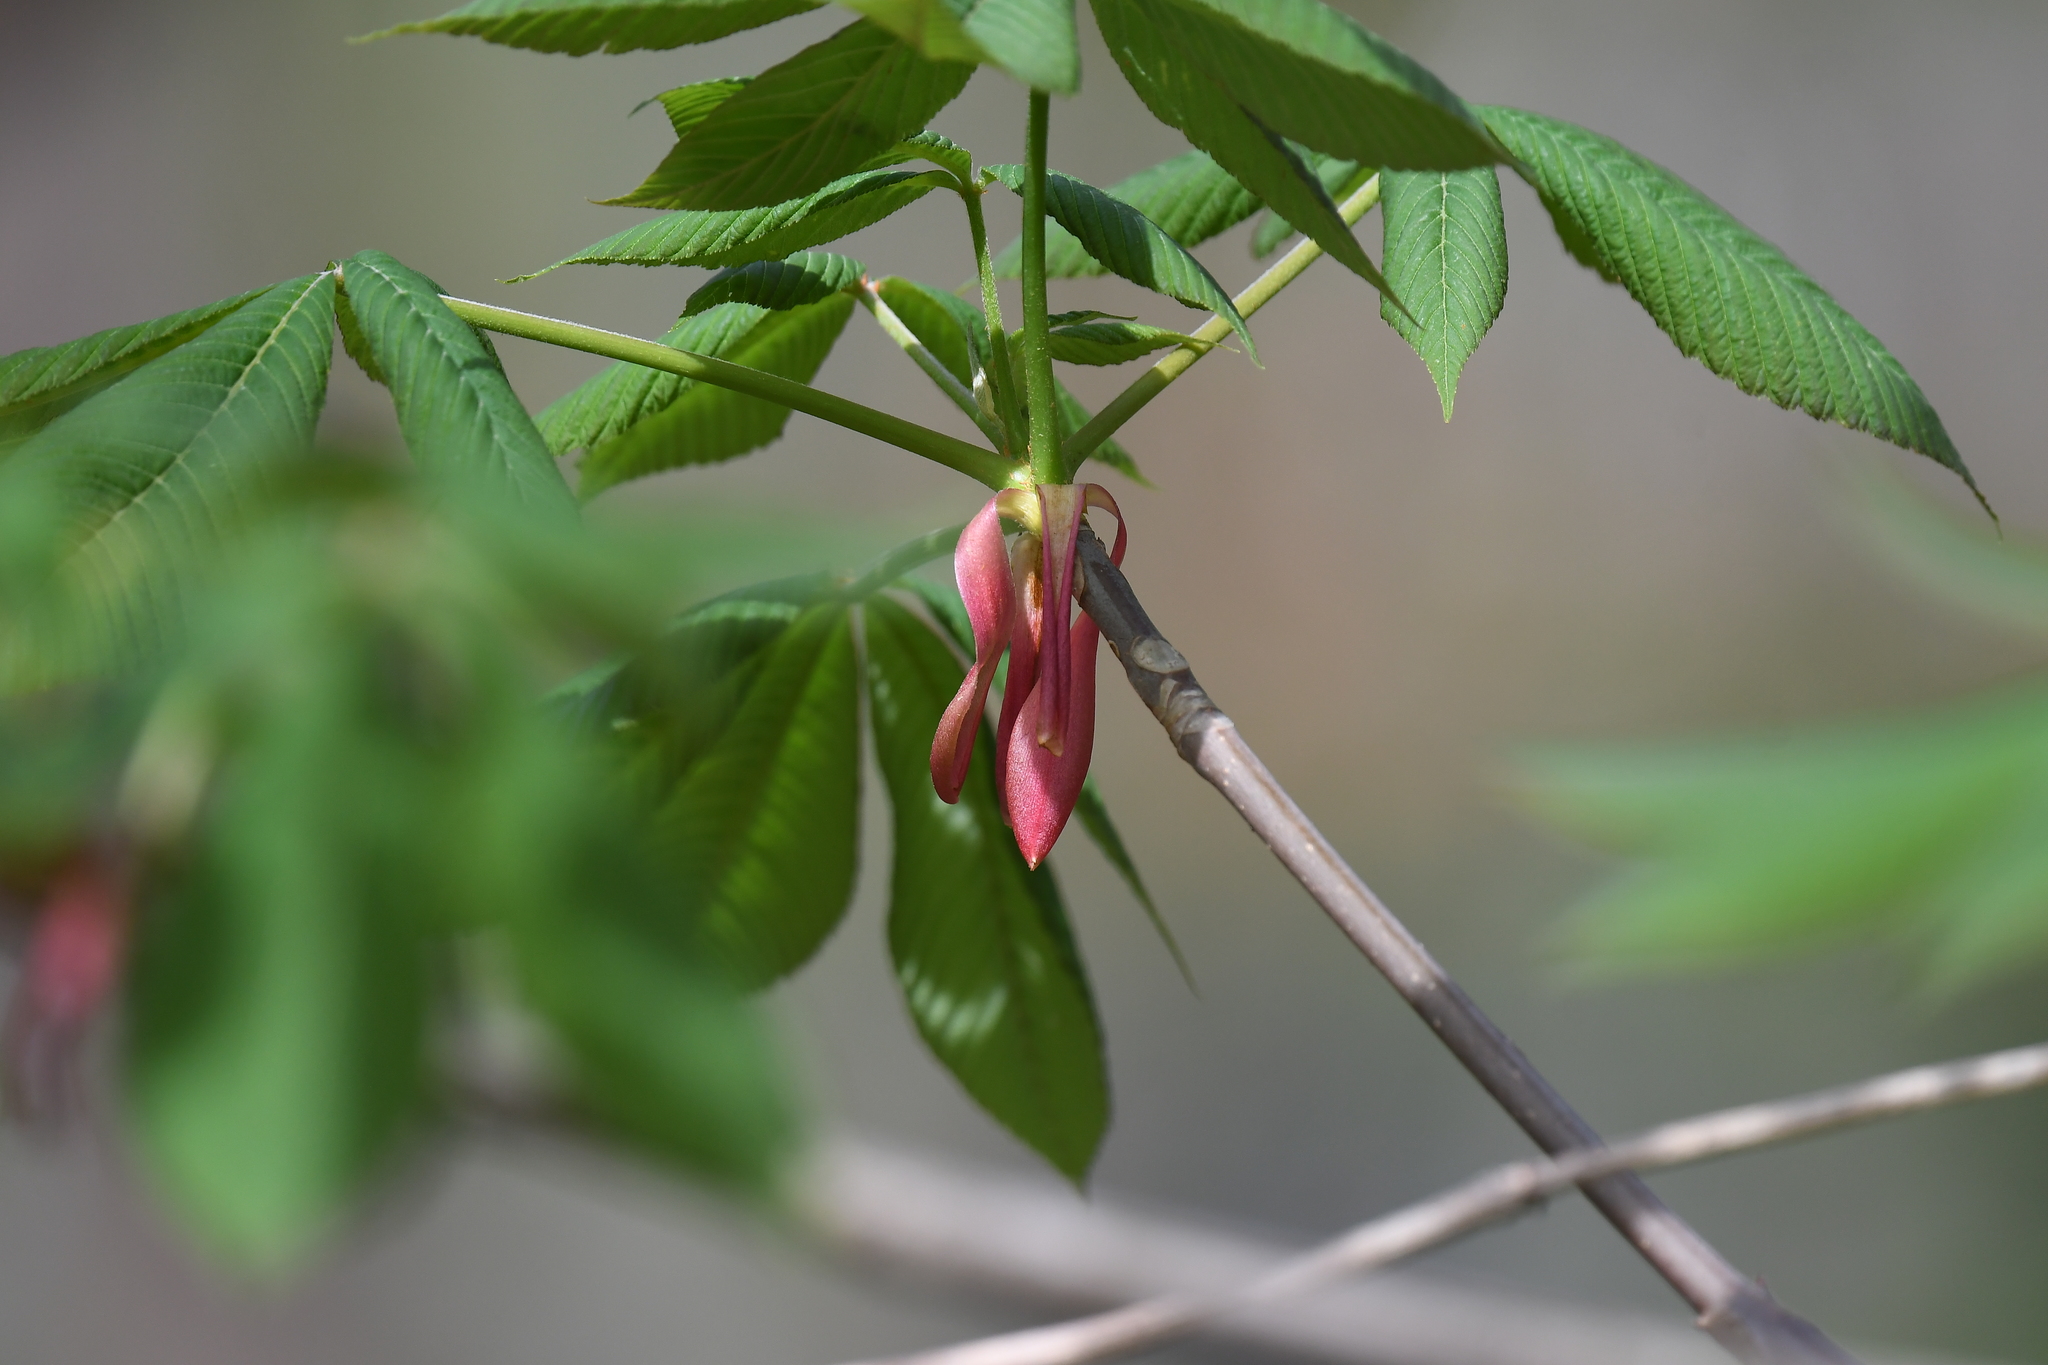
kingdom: Plantae
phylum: Tracheophyta
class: Magnoliopsida
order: Sapindales
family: Sapindaceae
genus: Aesculus
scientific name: Aesculus pavia
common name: Red buckeye
